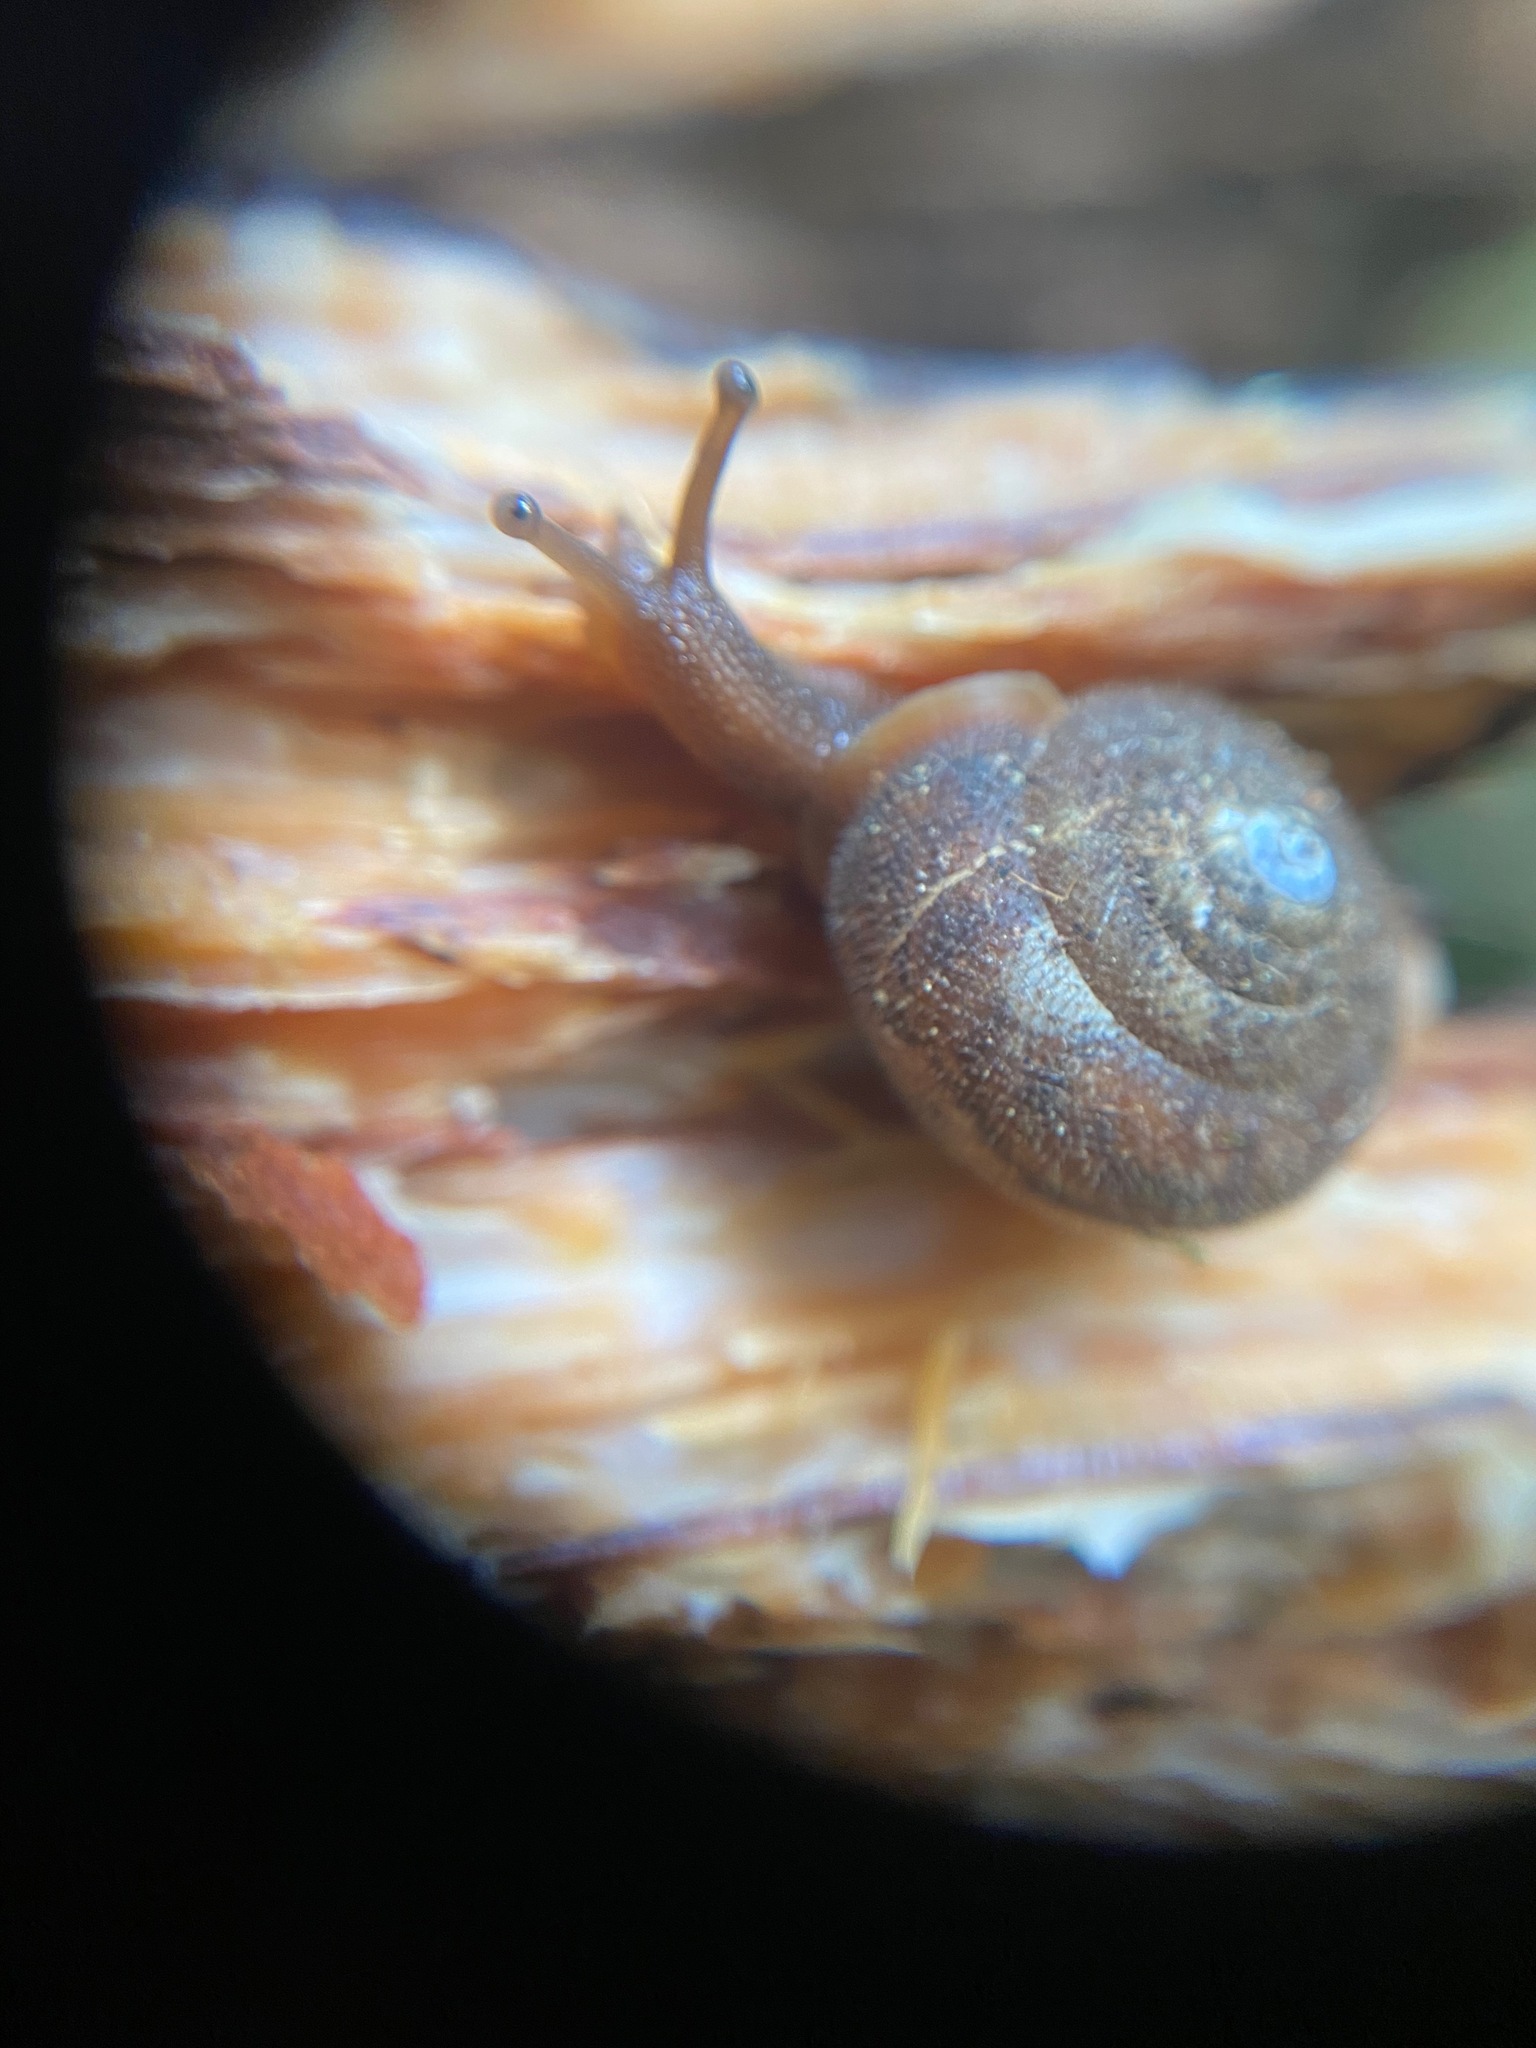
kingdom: Animalia
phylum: Mollusca
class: Gastropoda
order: Stylommatophora
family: Polygyridae
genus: Vespericola
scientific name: Vespericola columbianus
